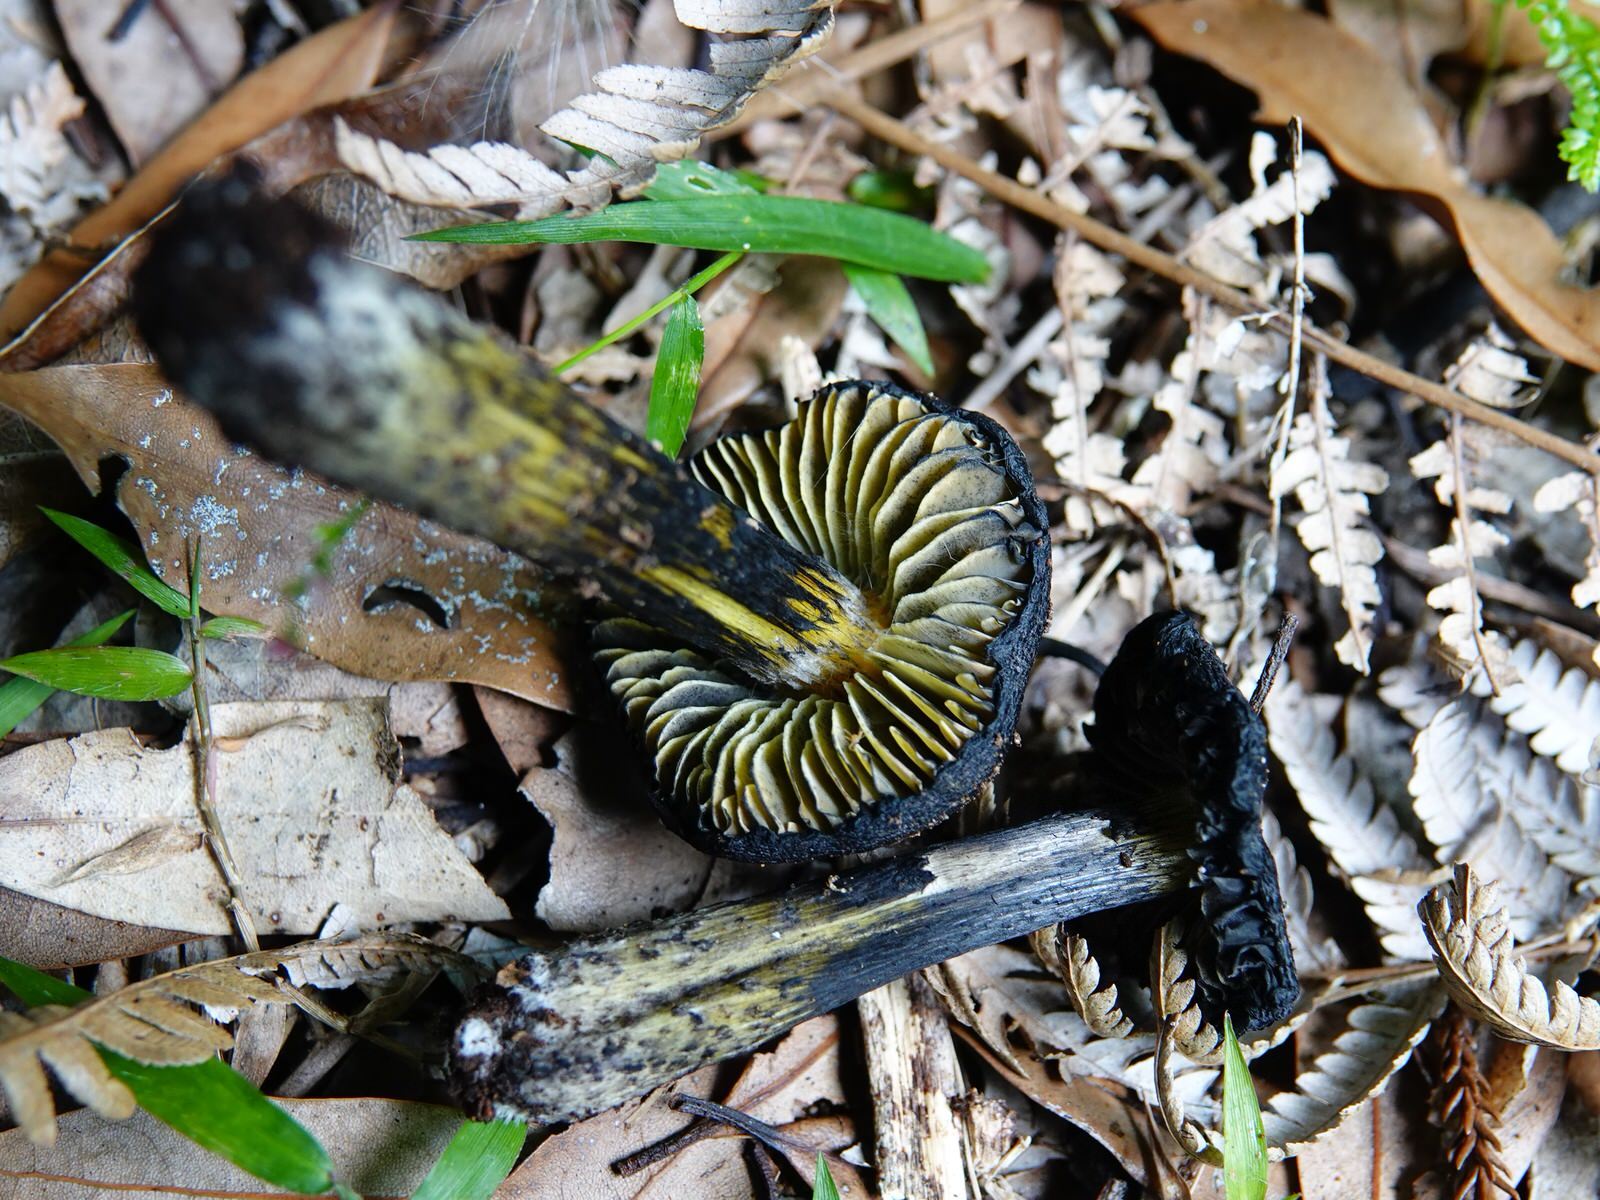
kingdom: Fungi
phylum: Basidiomycota
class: Agaricomycetes
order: Agaricales
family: Hygrophoraceae
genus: Hygrocybe
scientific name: Hygrocybe astatogala
